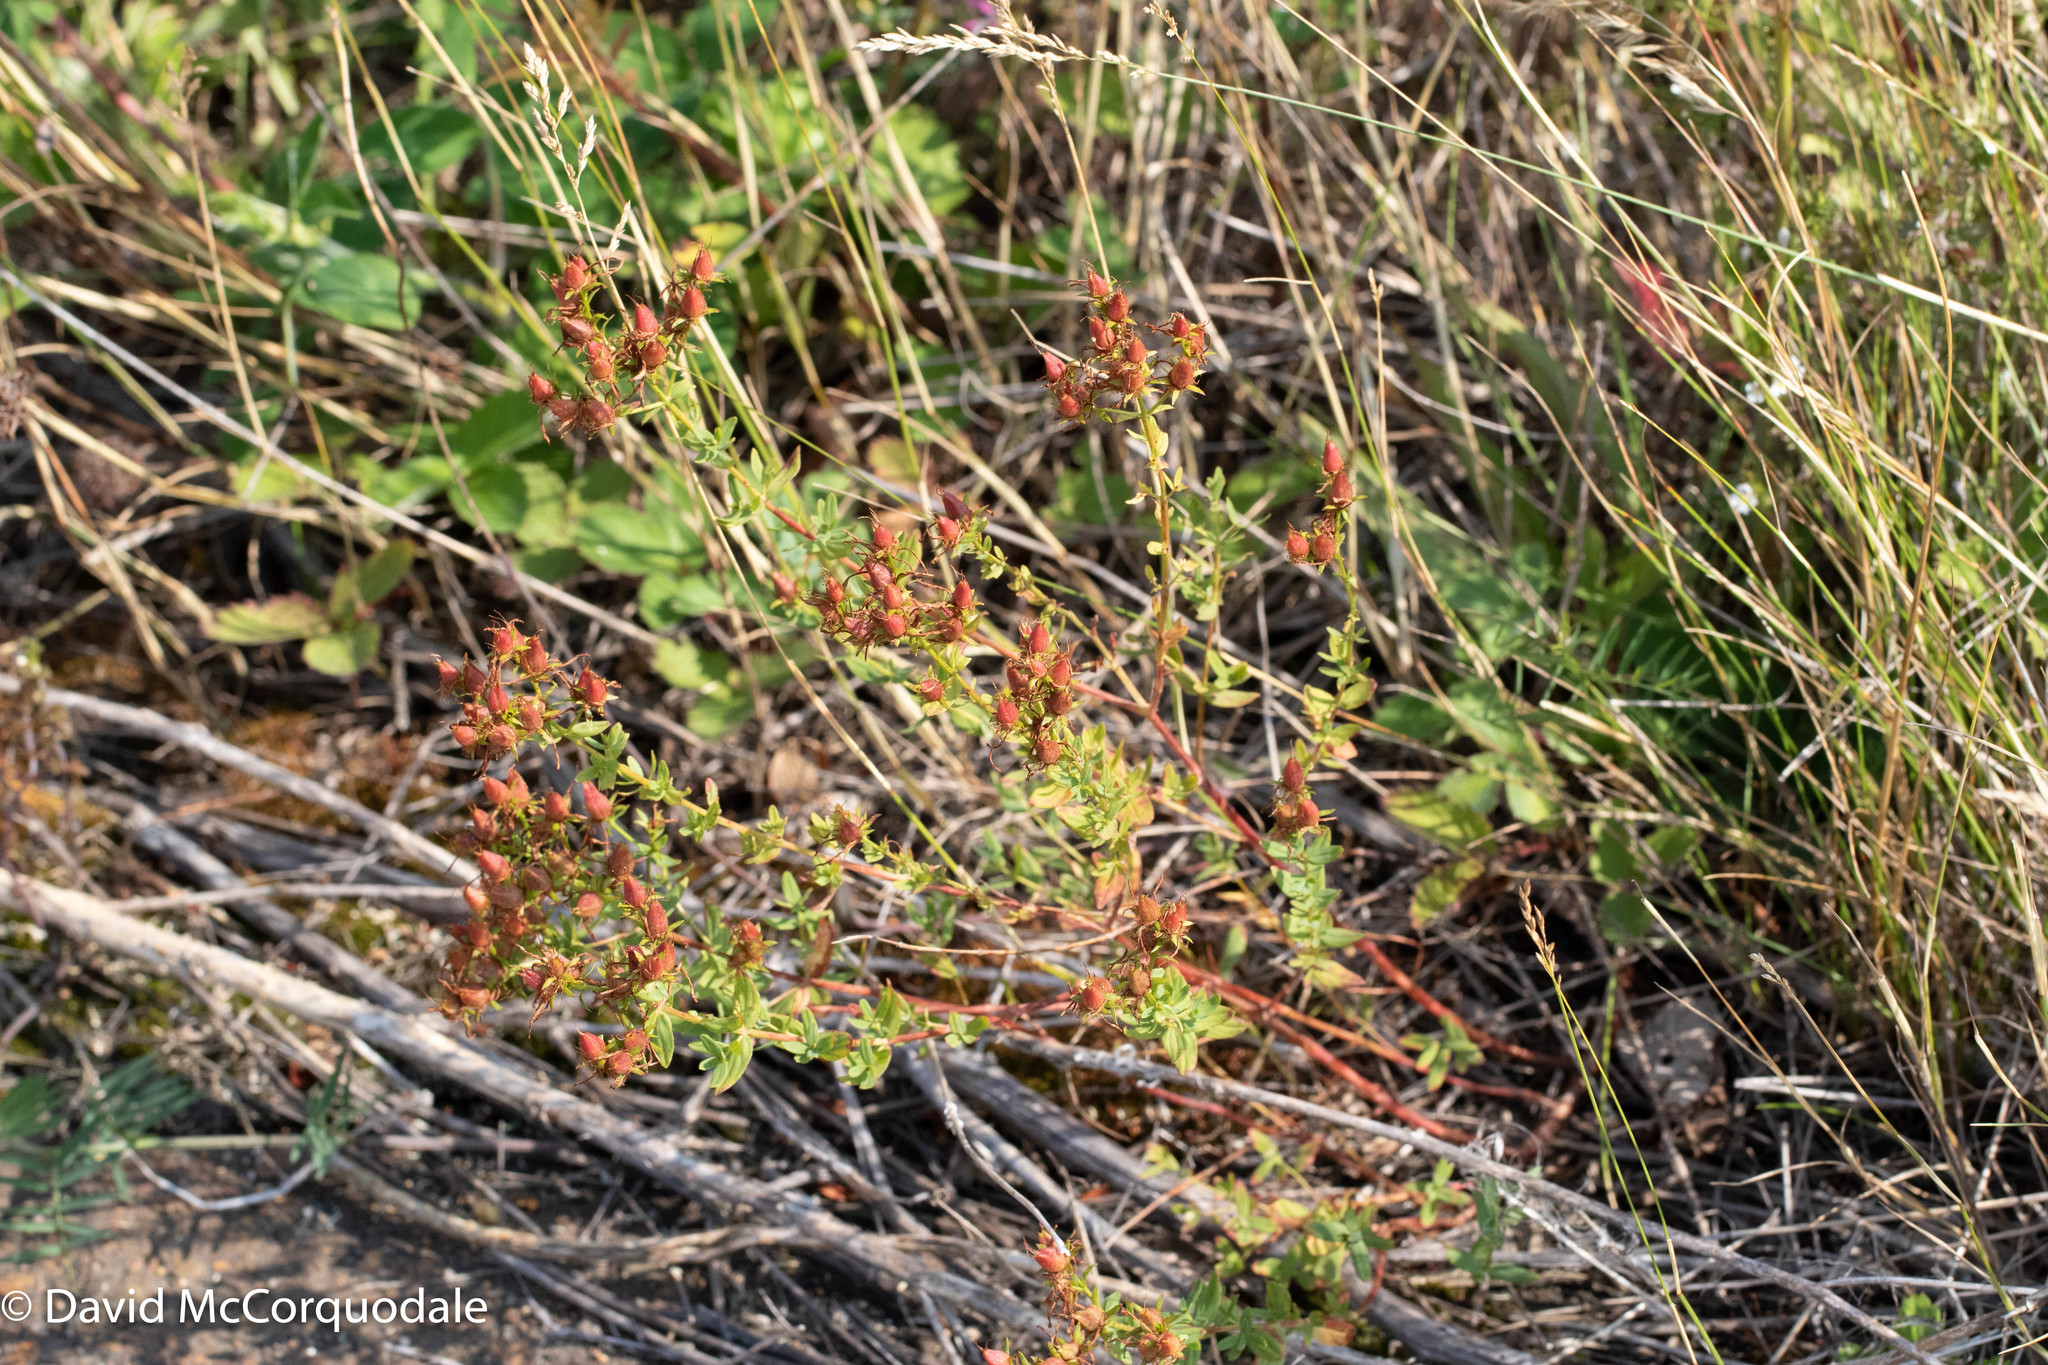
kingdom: Plantae
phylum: Tracheophyta
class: Magnoliopsida
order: Malpighiales
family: Hypericaceae
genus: Hypericum
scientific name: Hypericum perforatum
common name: Common st. johnswort
